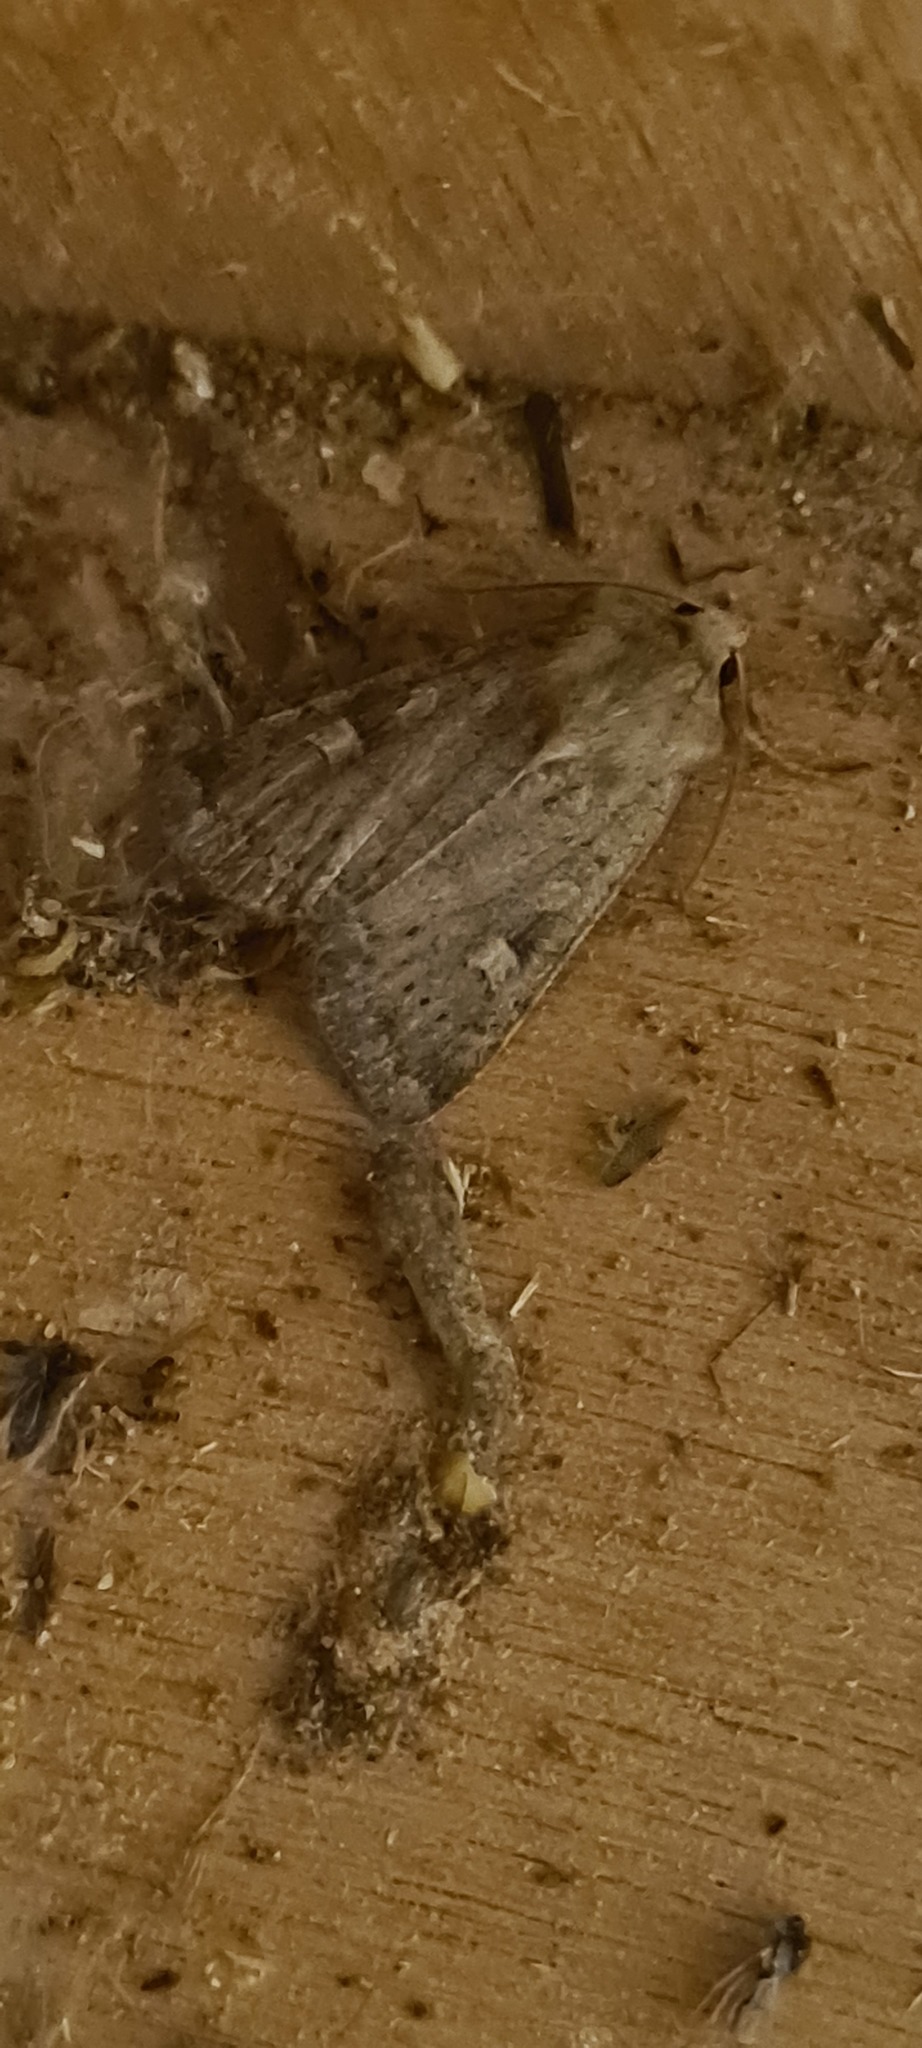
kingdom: Animalia
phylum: Arthropoda
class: Insecta
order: Lepidoptera
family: Noctuidae
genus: Xestia
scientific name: Xestia xanthographa
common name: Square-spot rustic
